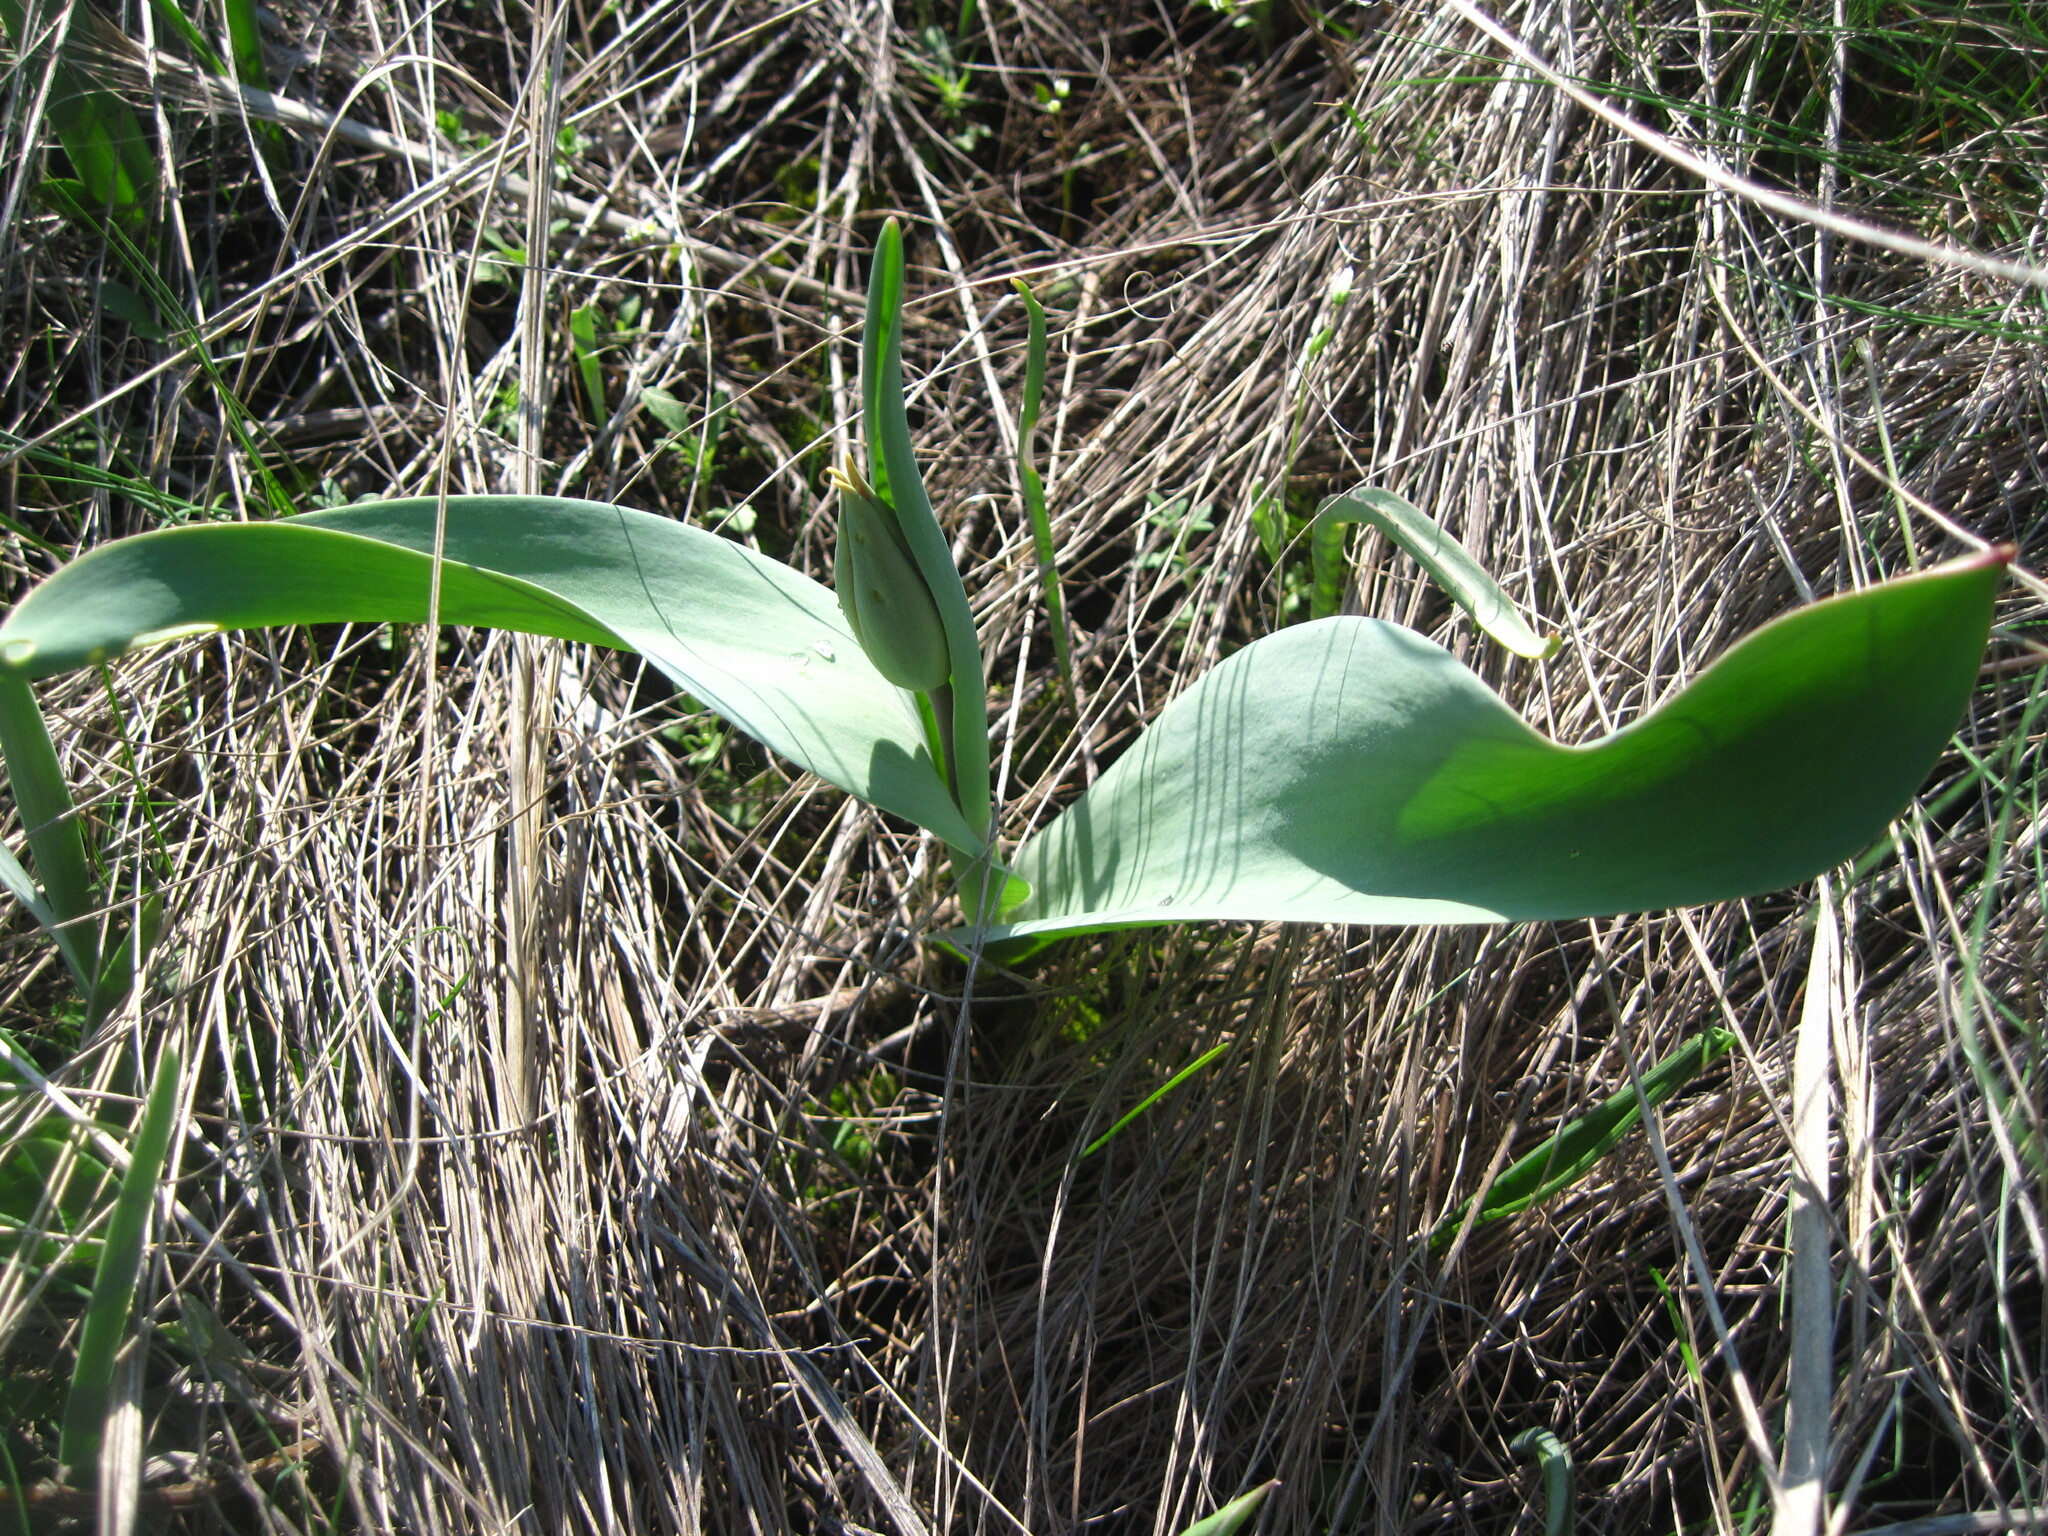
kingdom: Plantae
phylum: Tracheophyta
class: Liliopsida
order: Liliales
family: Liliaceae
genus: Tulipa
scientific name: Tulipa suaveolens
